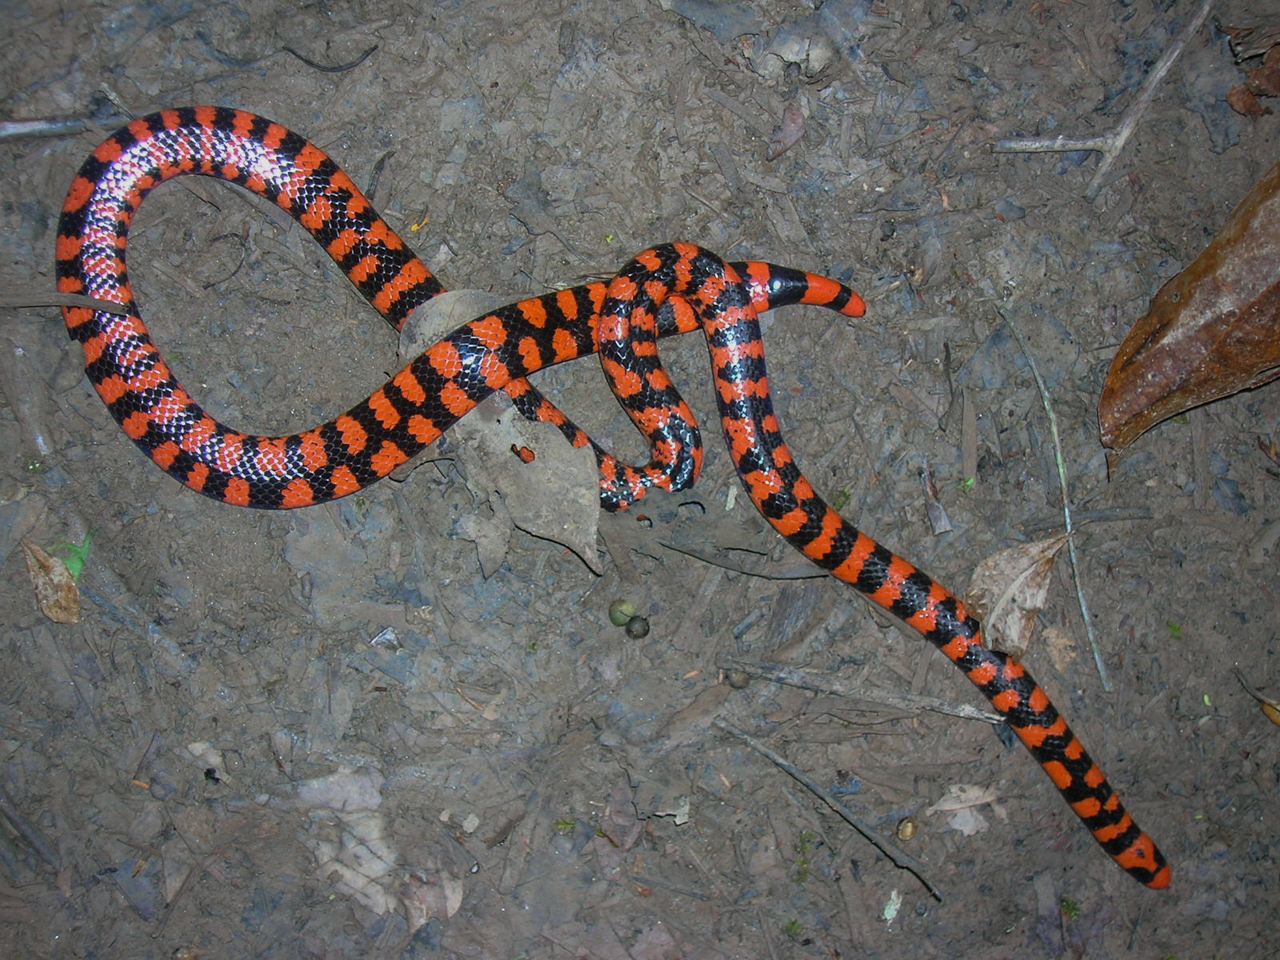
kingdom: Animalia
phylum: Chordata
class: Squamata
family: Aniliidae
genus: Anilius
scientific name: Anilius scytale
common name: Coral pipe snakes
